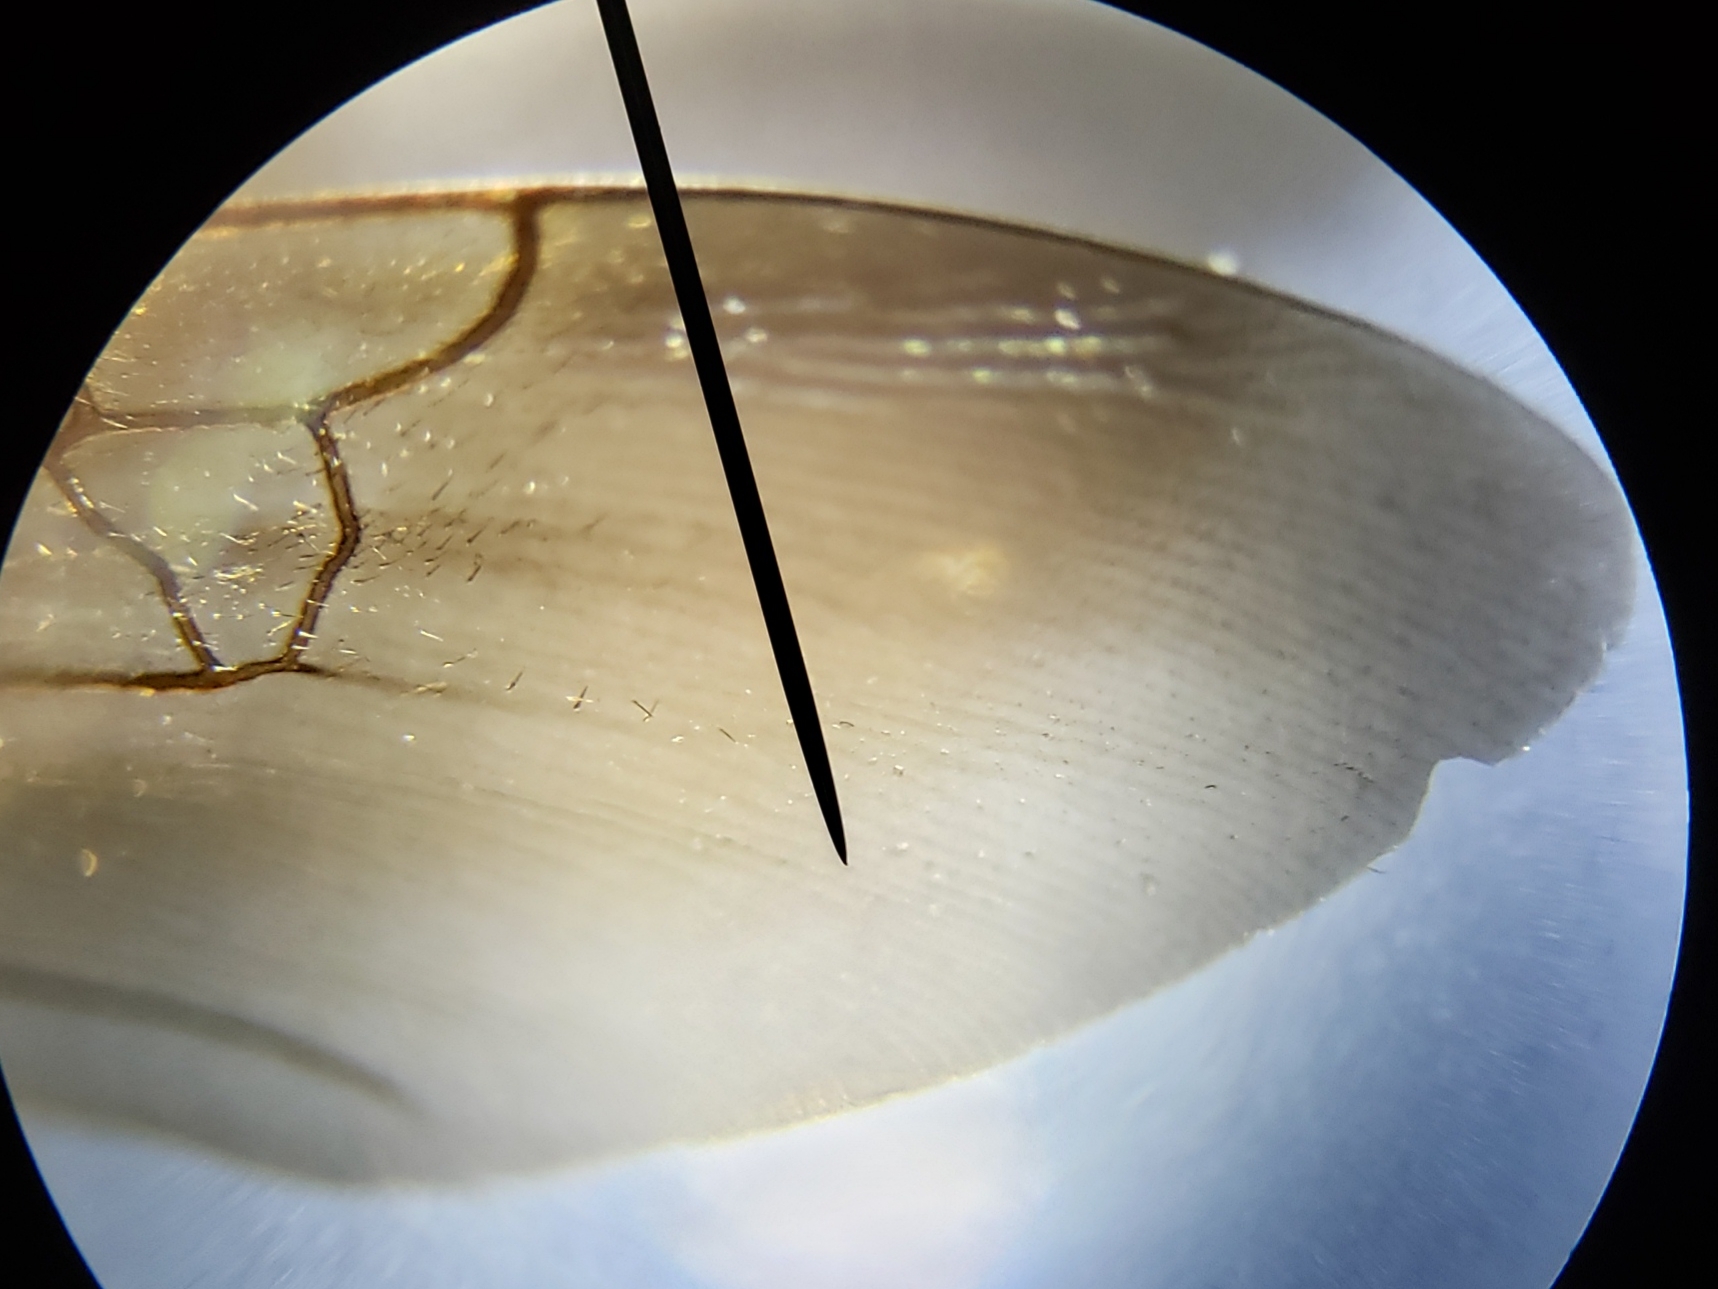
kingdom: Animalia
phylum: Arthropoda
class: Insecta
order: Hymenoptera
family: Scoliidae
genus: Colpa
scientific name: Colpa octomaculata
